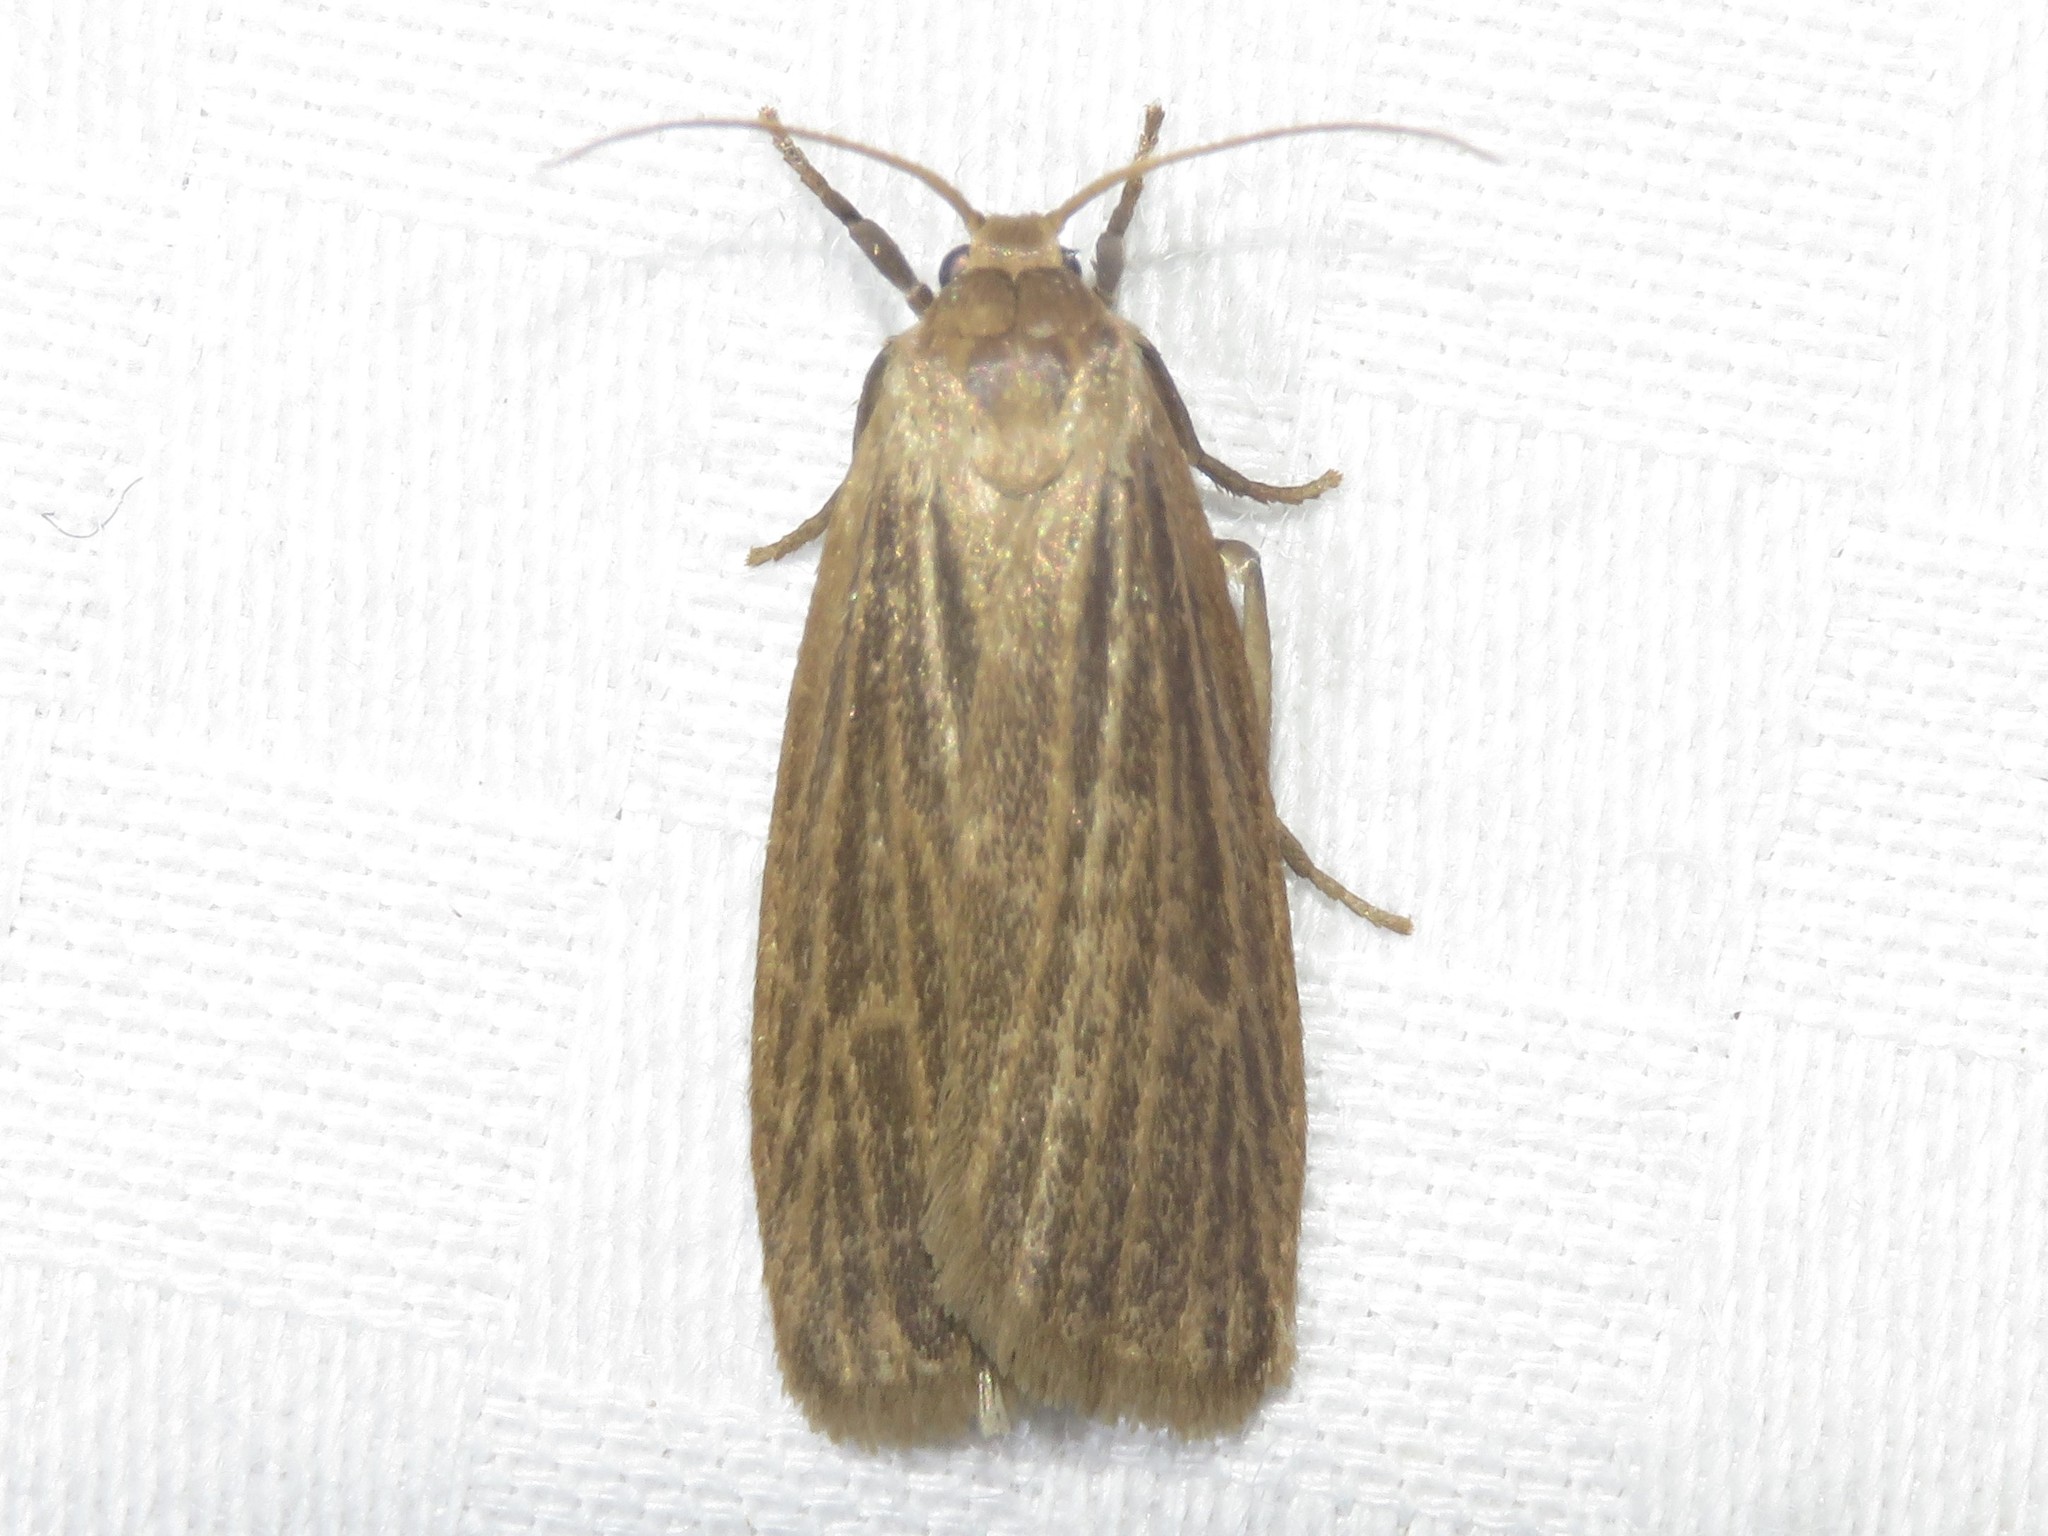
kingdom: Animalia
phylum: Arthropoda
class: Insecta
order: Lepidoptera
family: Erebidae
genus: Crambidia
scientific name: Crambidia pallida
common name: Pale lichen moth
